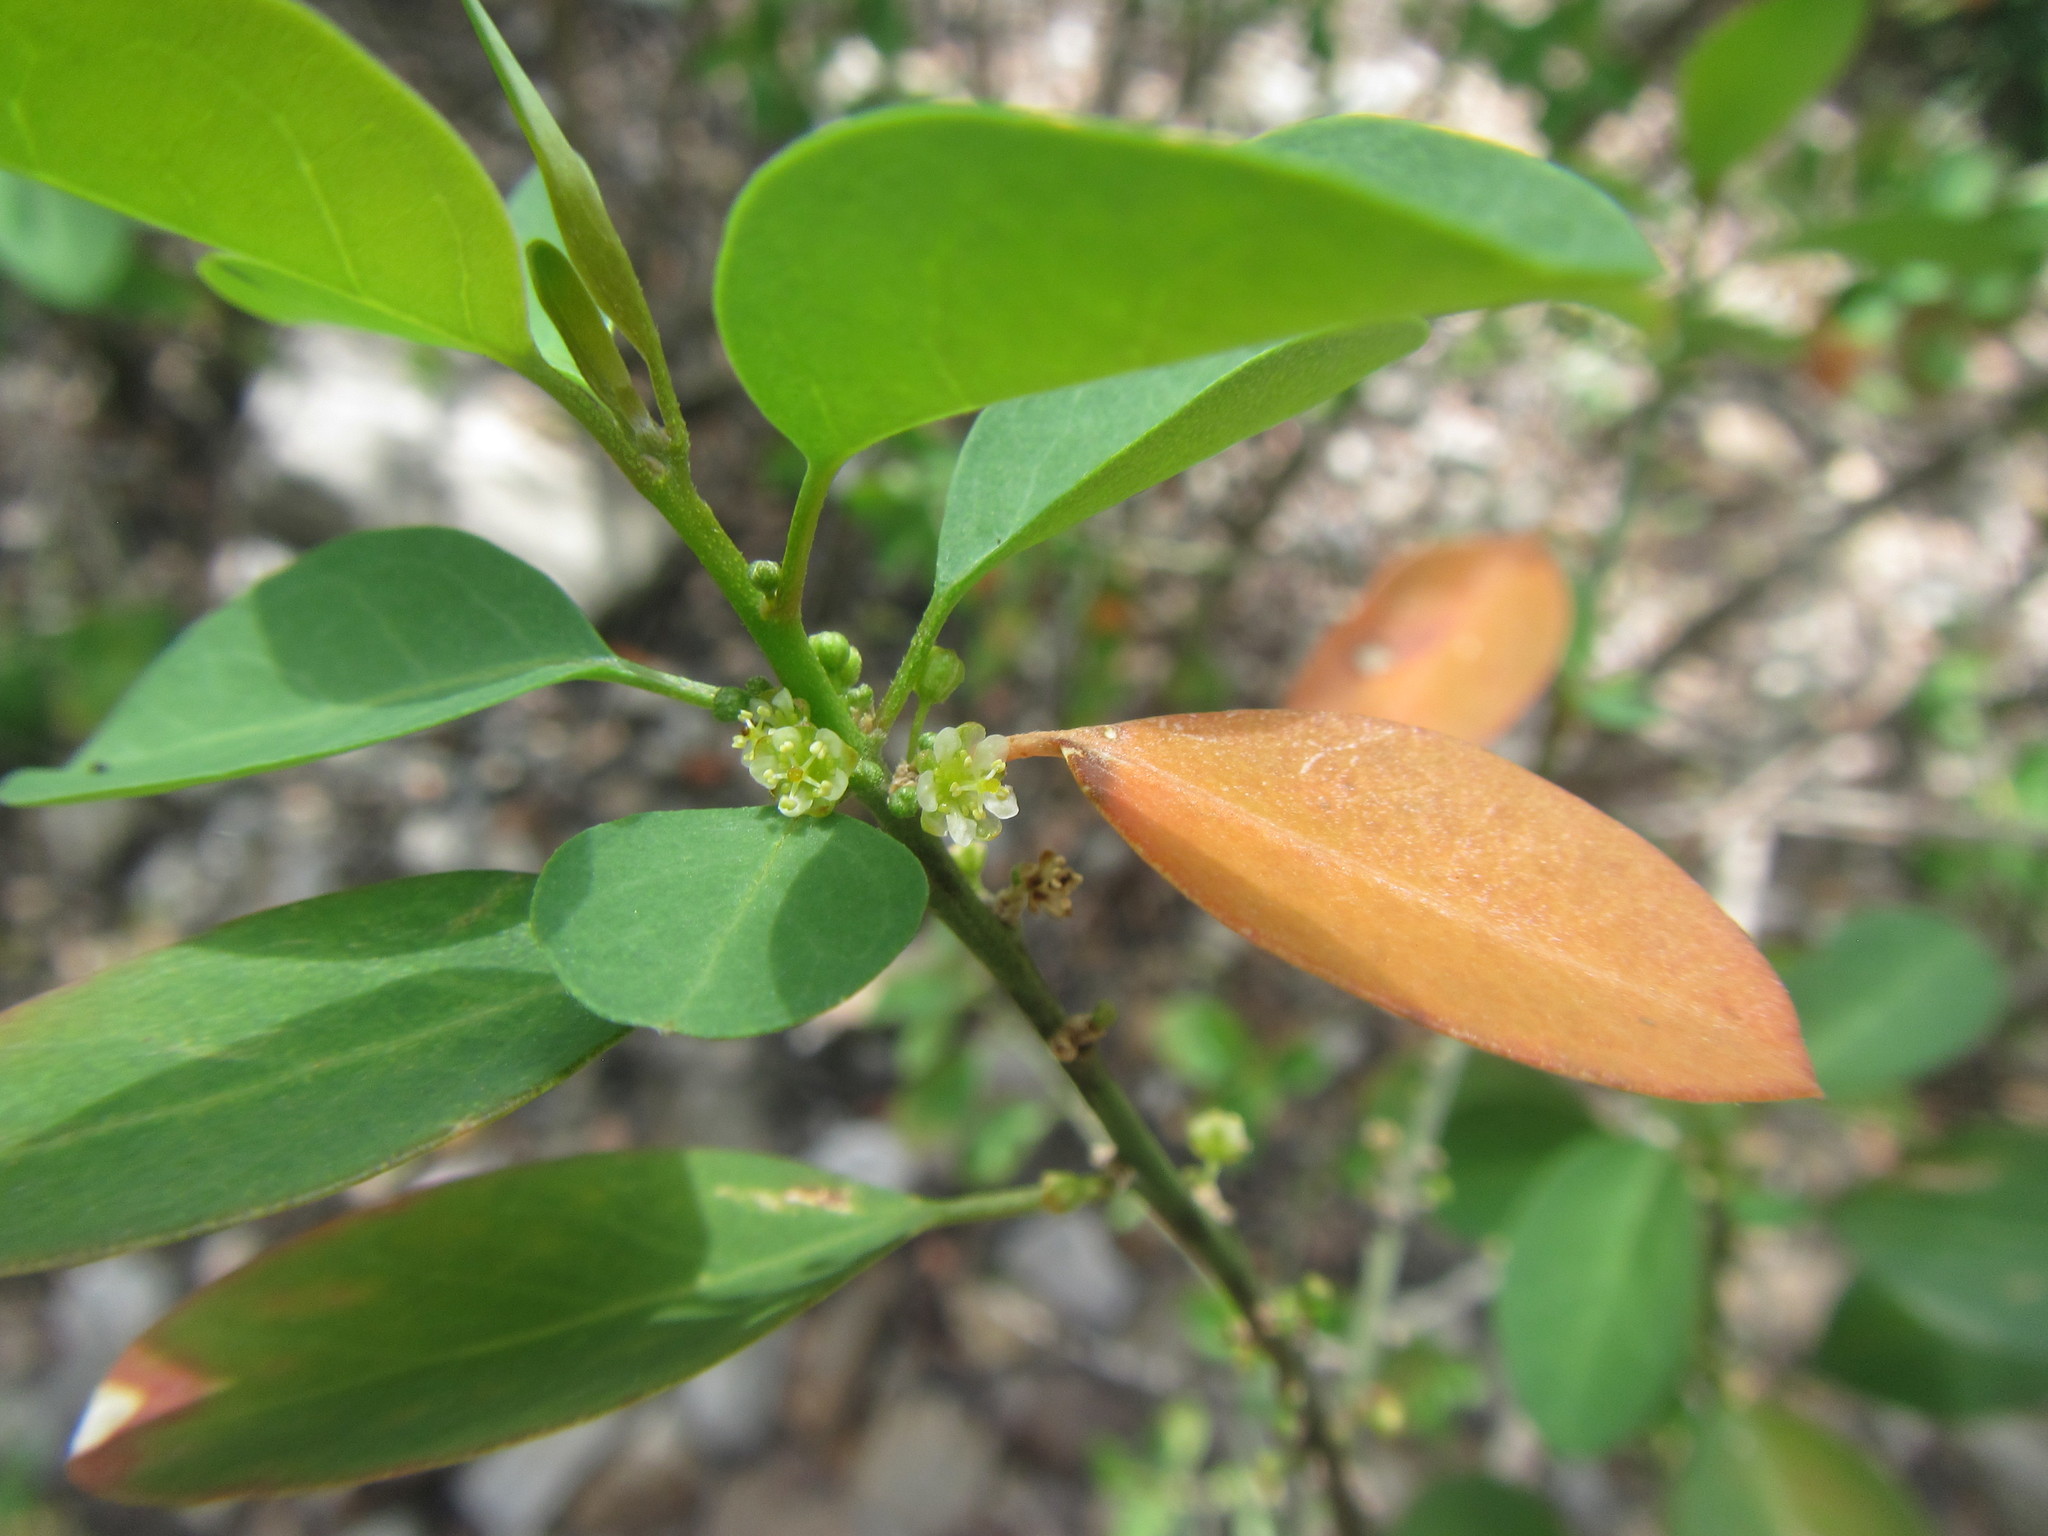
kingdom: Plantae
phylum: Tracheophyta
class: Magnoliopsida
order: Malpighiales
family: Peraceae
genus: Clutia
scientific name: Clutia pulchella
